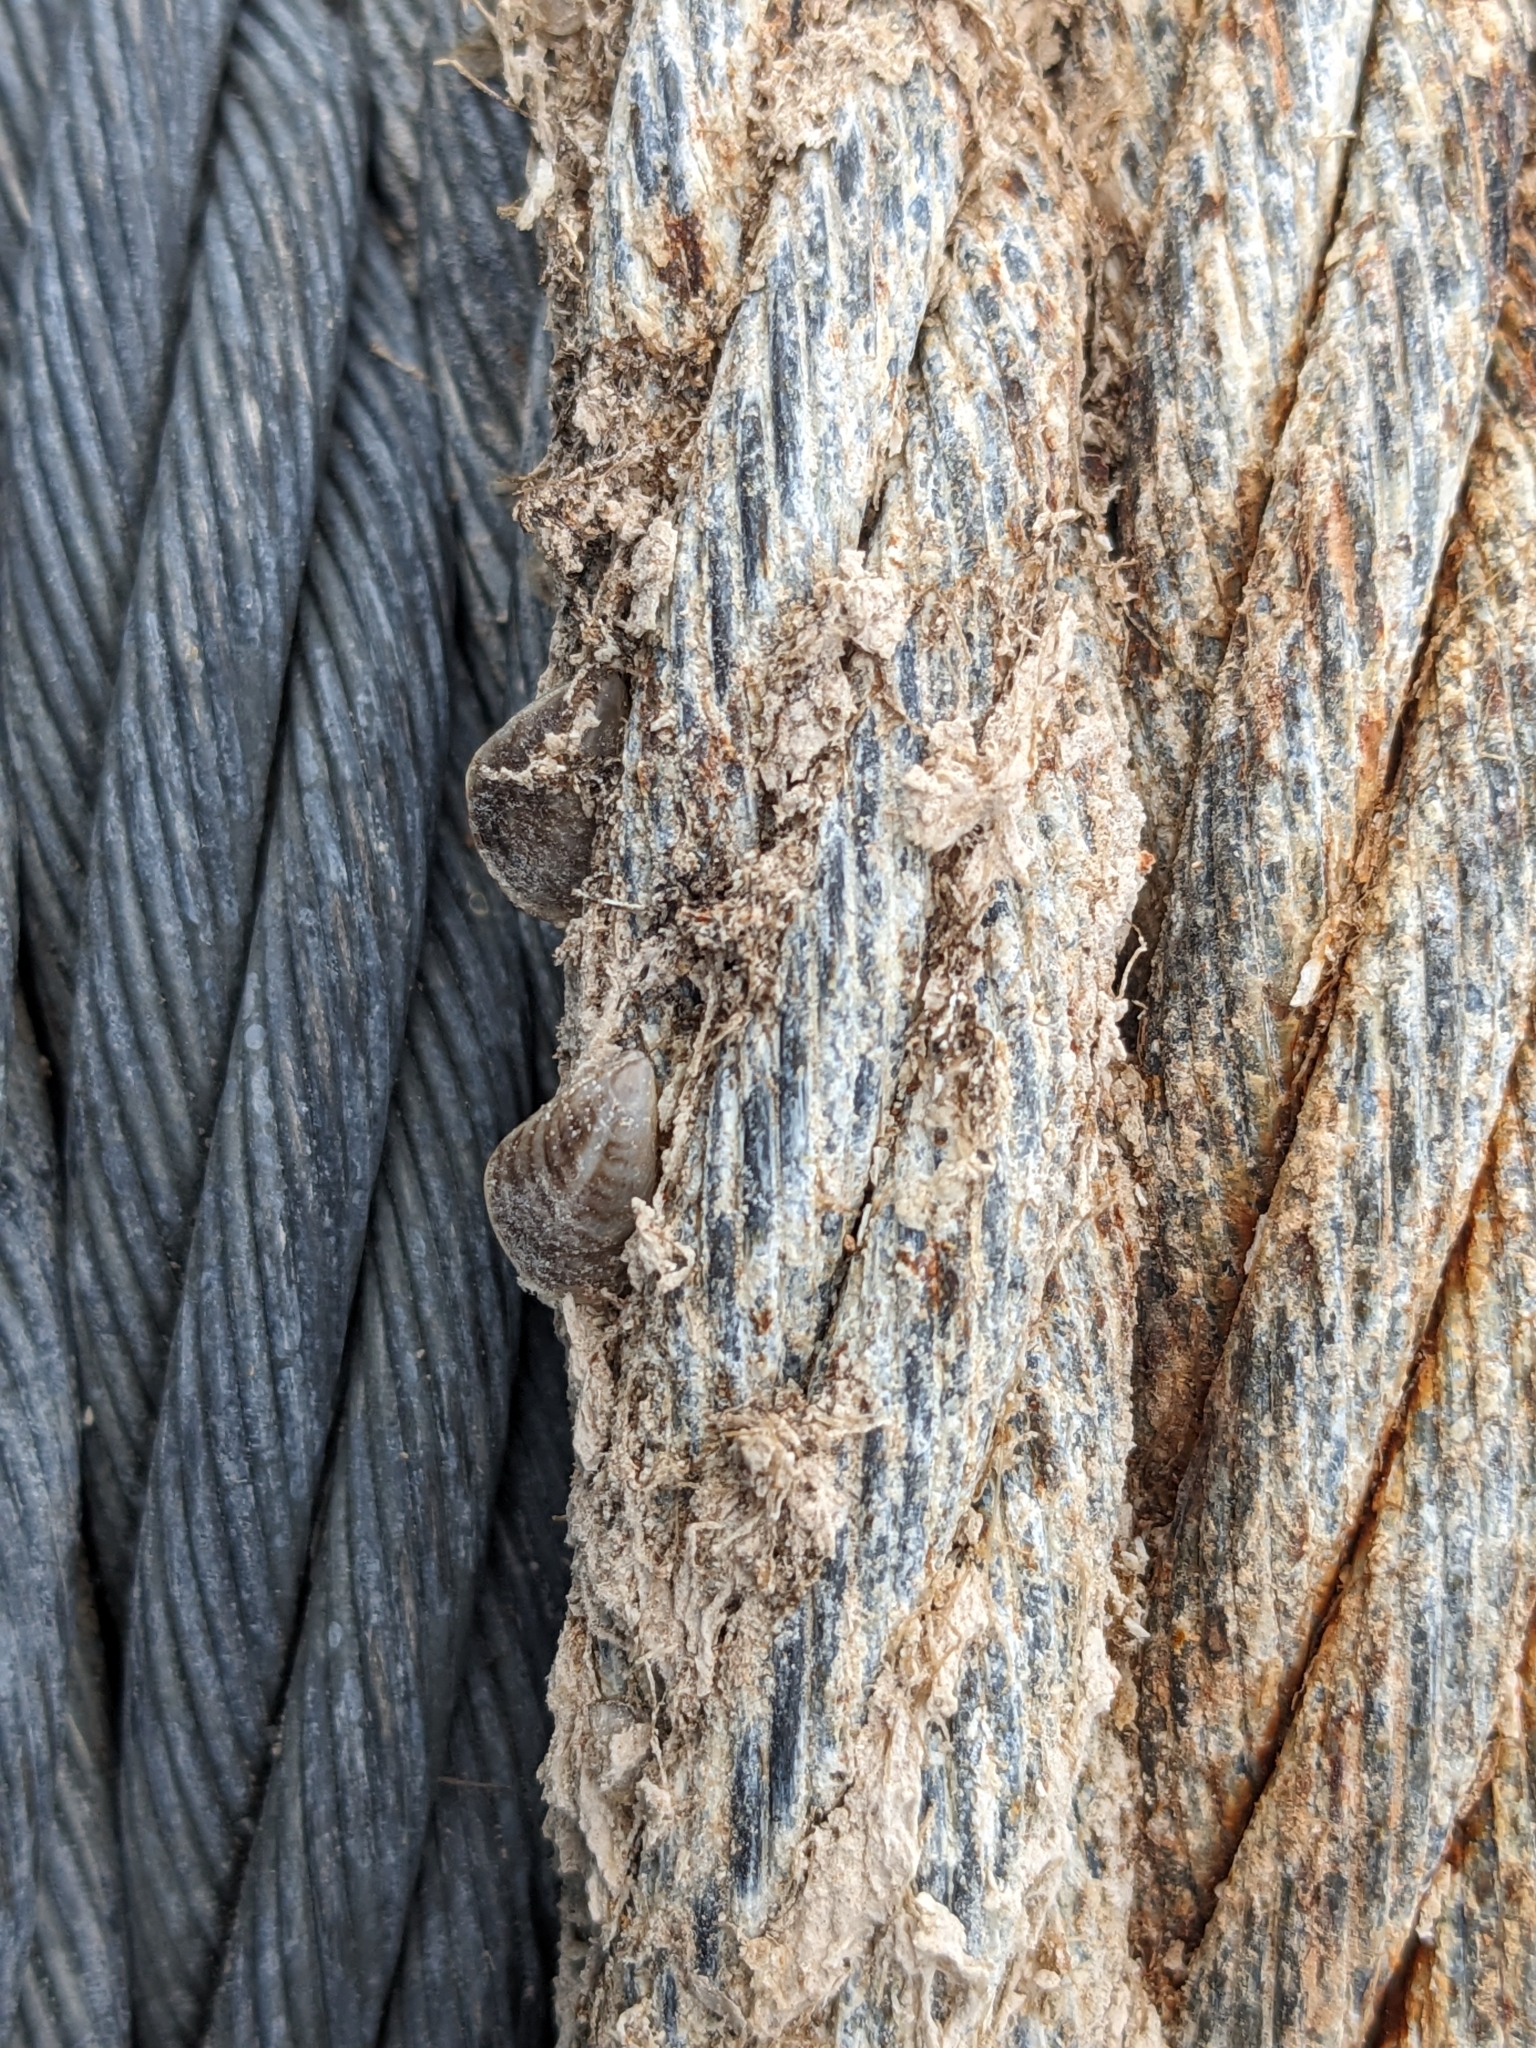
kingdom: Animalia
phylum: Mollusca
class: Bivalvia
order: Myida
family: Dreissenidae
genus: Dreissena
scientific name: Dreissena bugensis
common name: Quagga mussel
